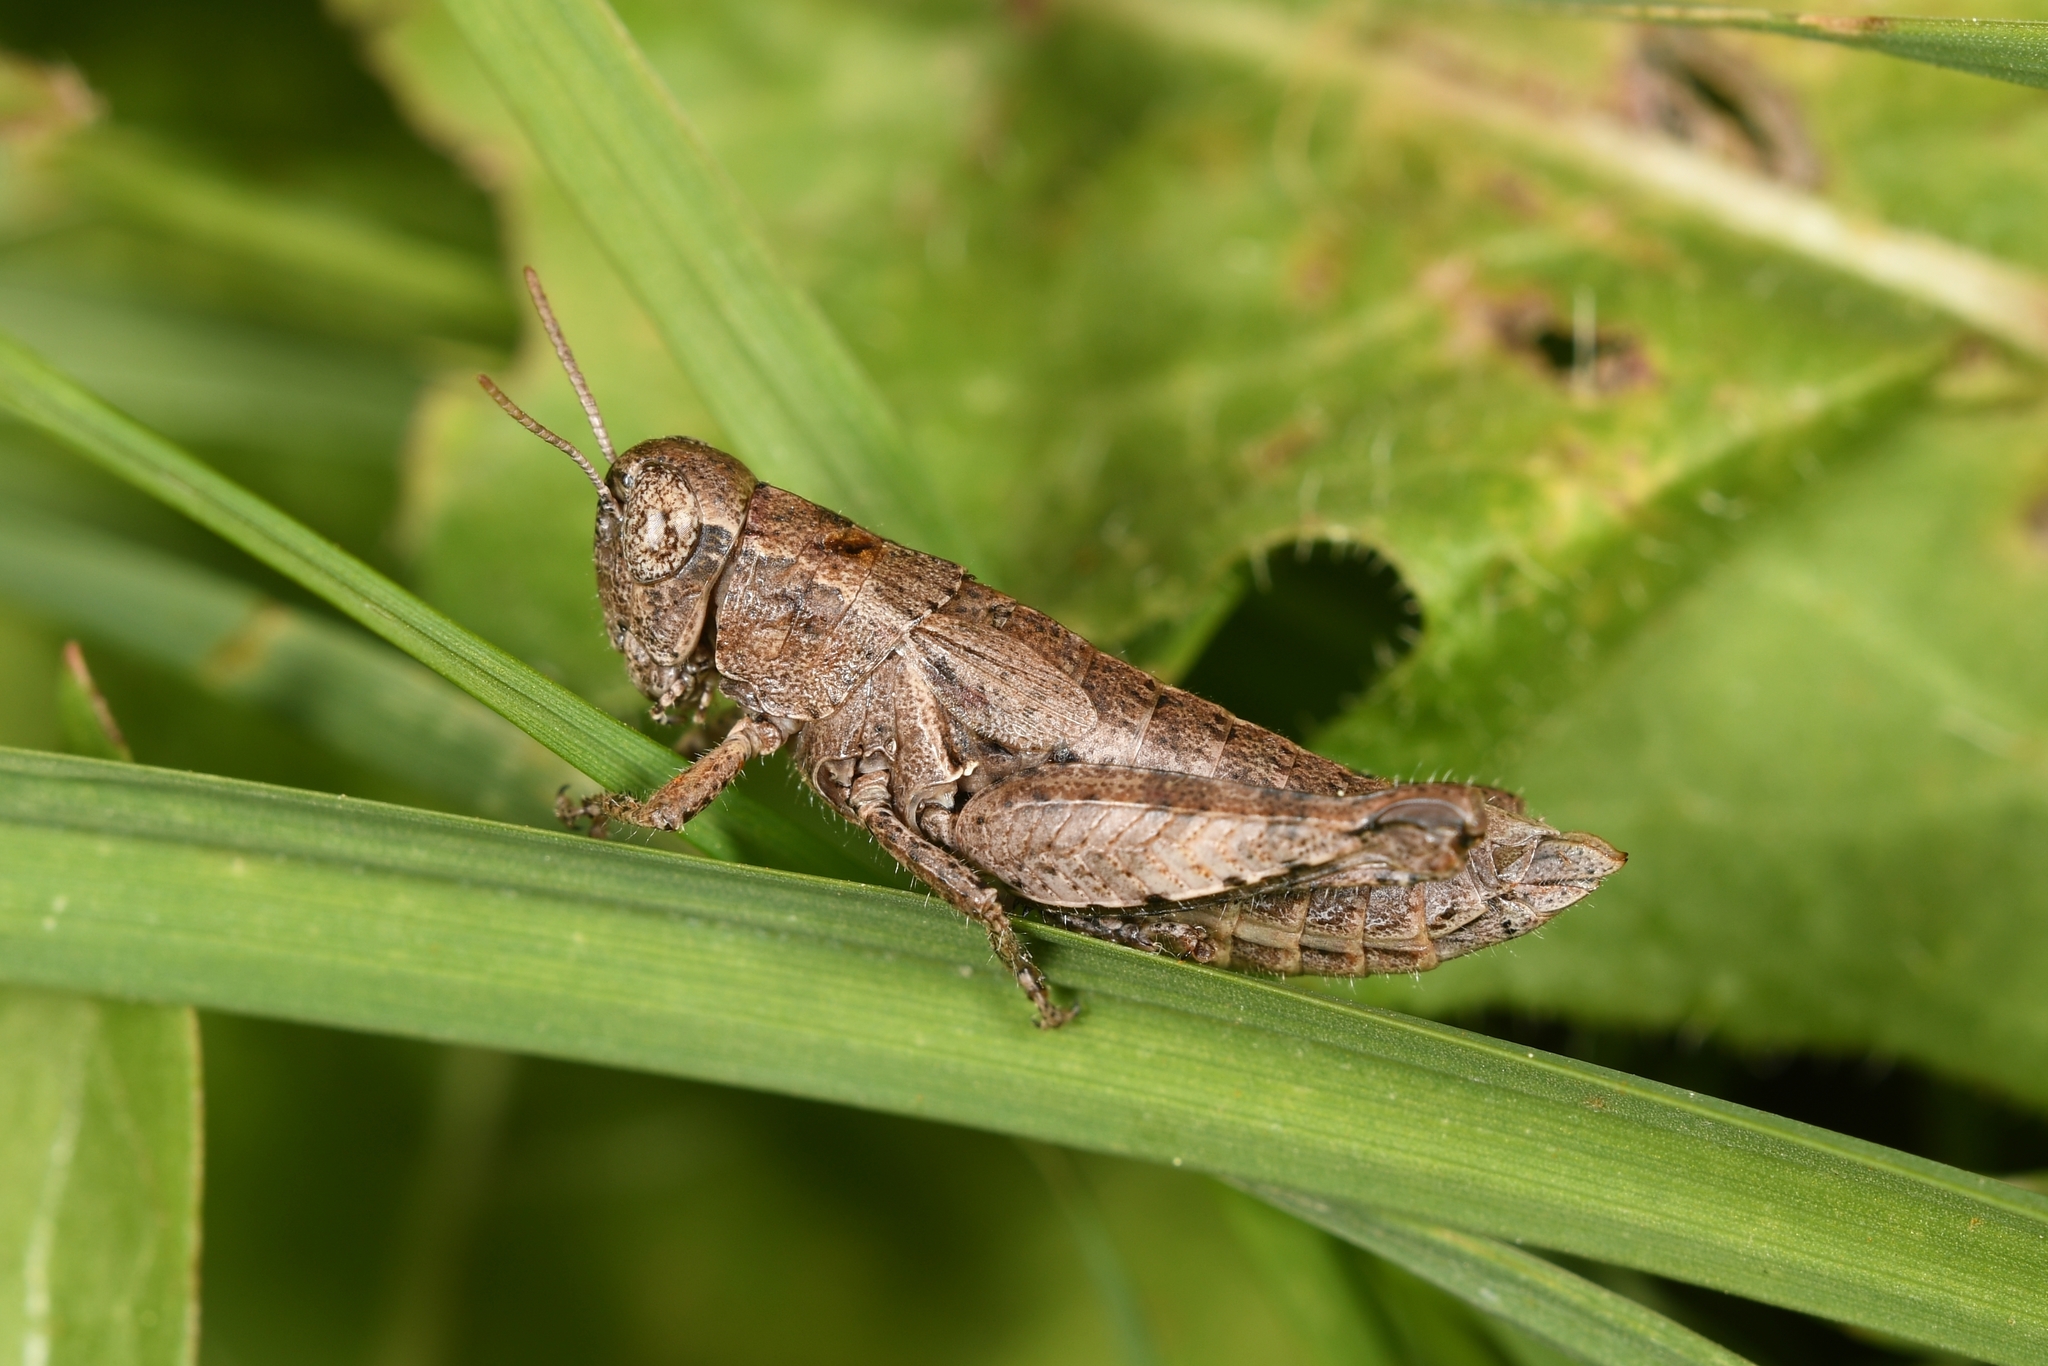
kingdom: Animalia
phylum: Arthropoda
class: Insecta
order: Orthoptera
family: Acrididae
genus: Pezotettix
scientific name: Pezotettix giornae
